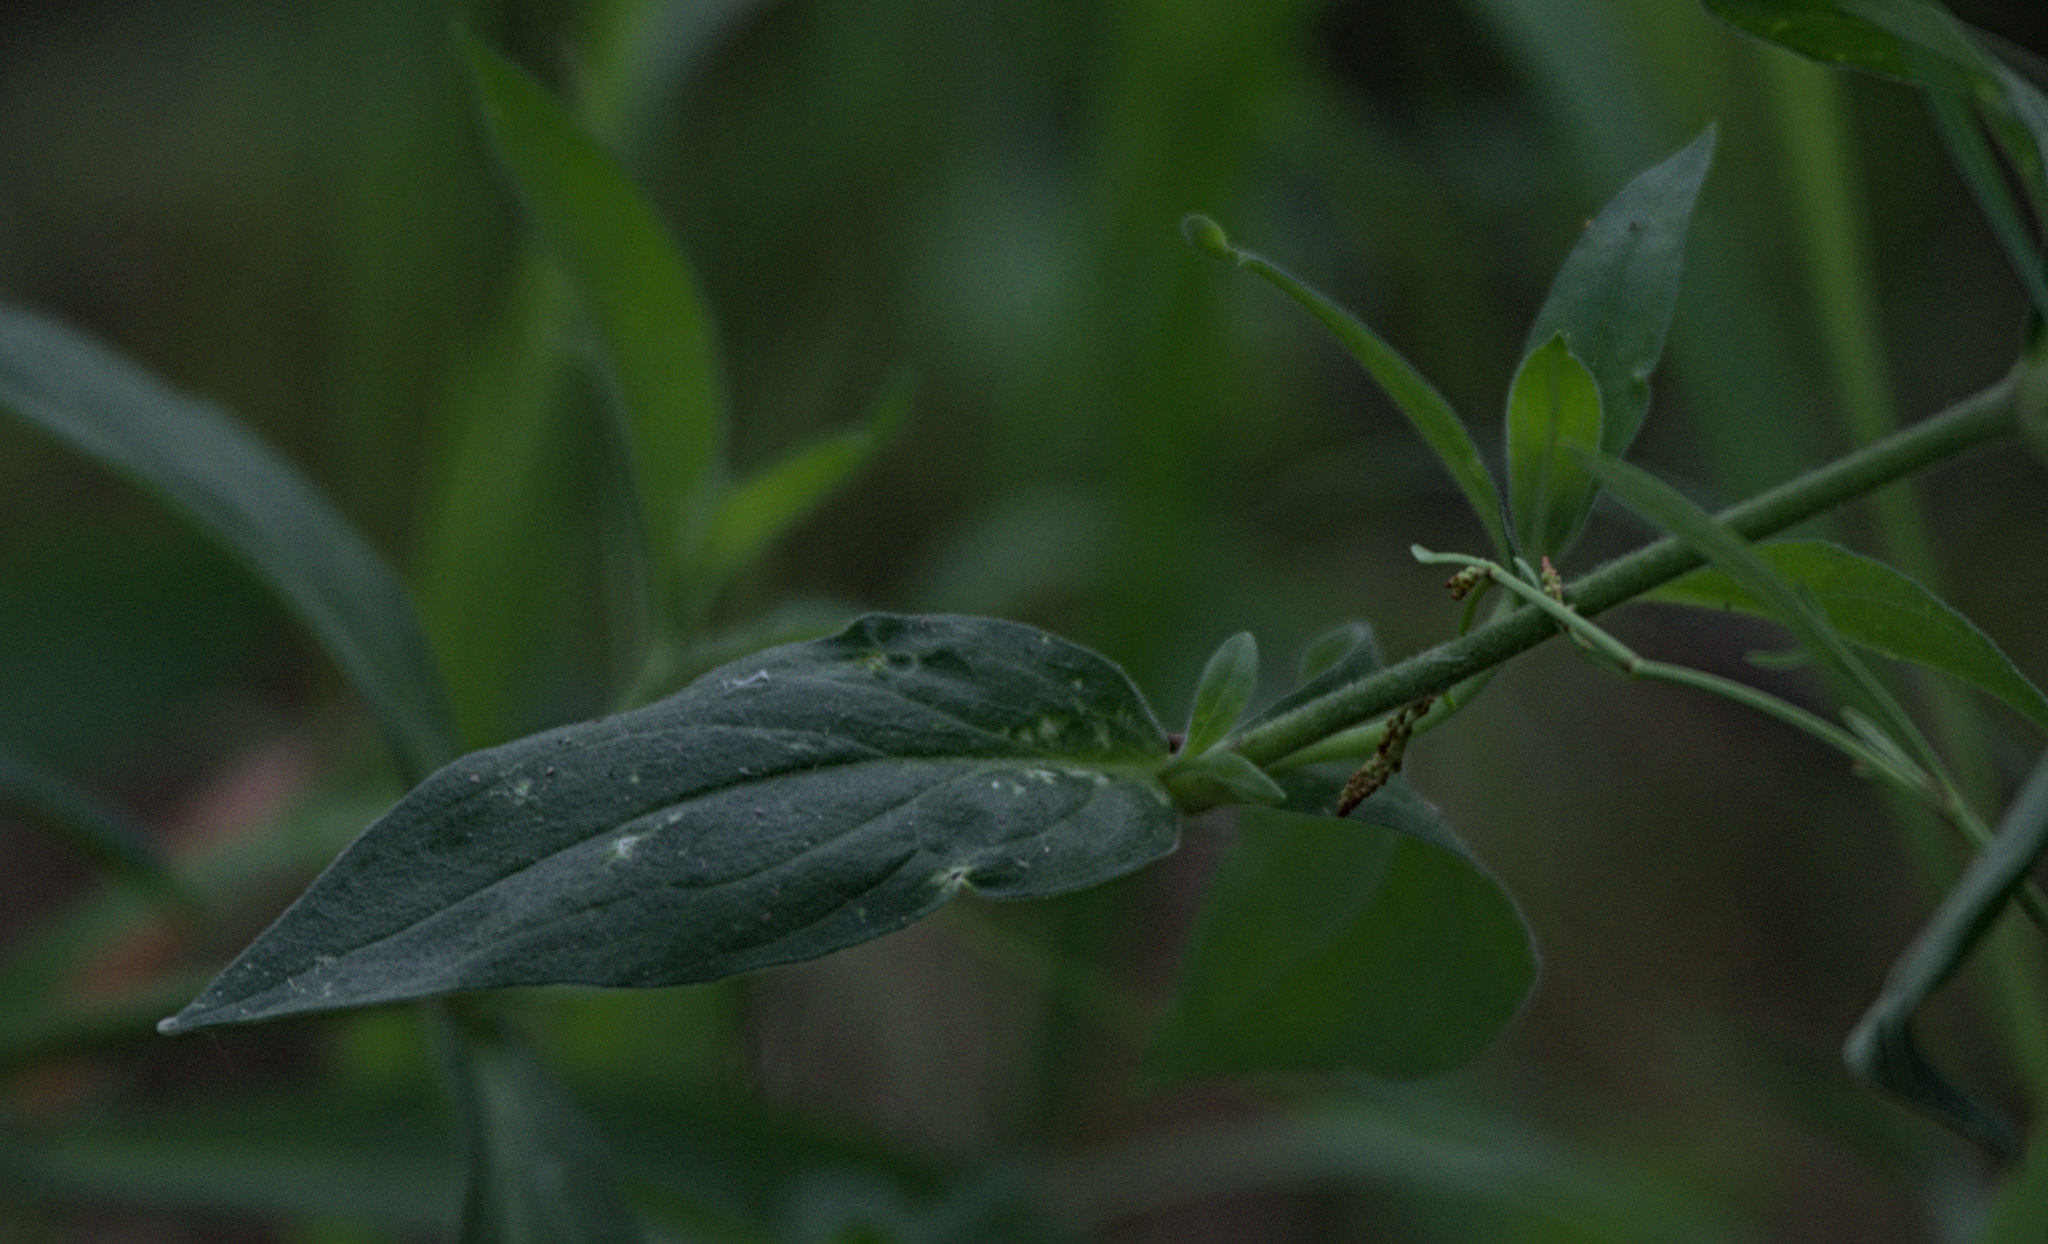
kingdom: Plantae
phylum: Tracheophyta
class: Magnoliopsida
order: Caryophyllales
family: Caryophyllaceae
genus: Silene
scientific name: Silene latifolia
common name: White campion
